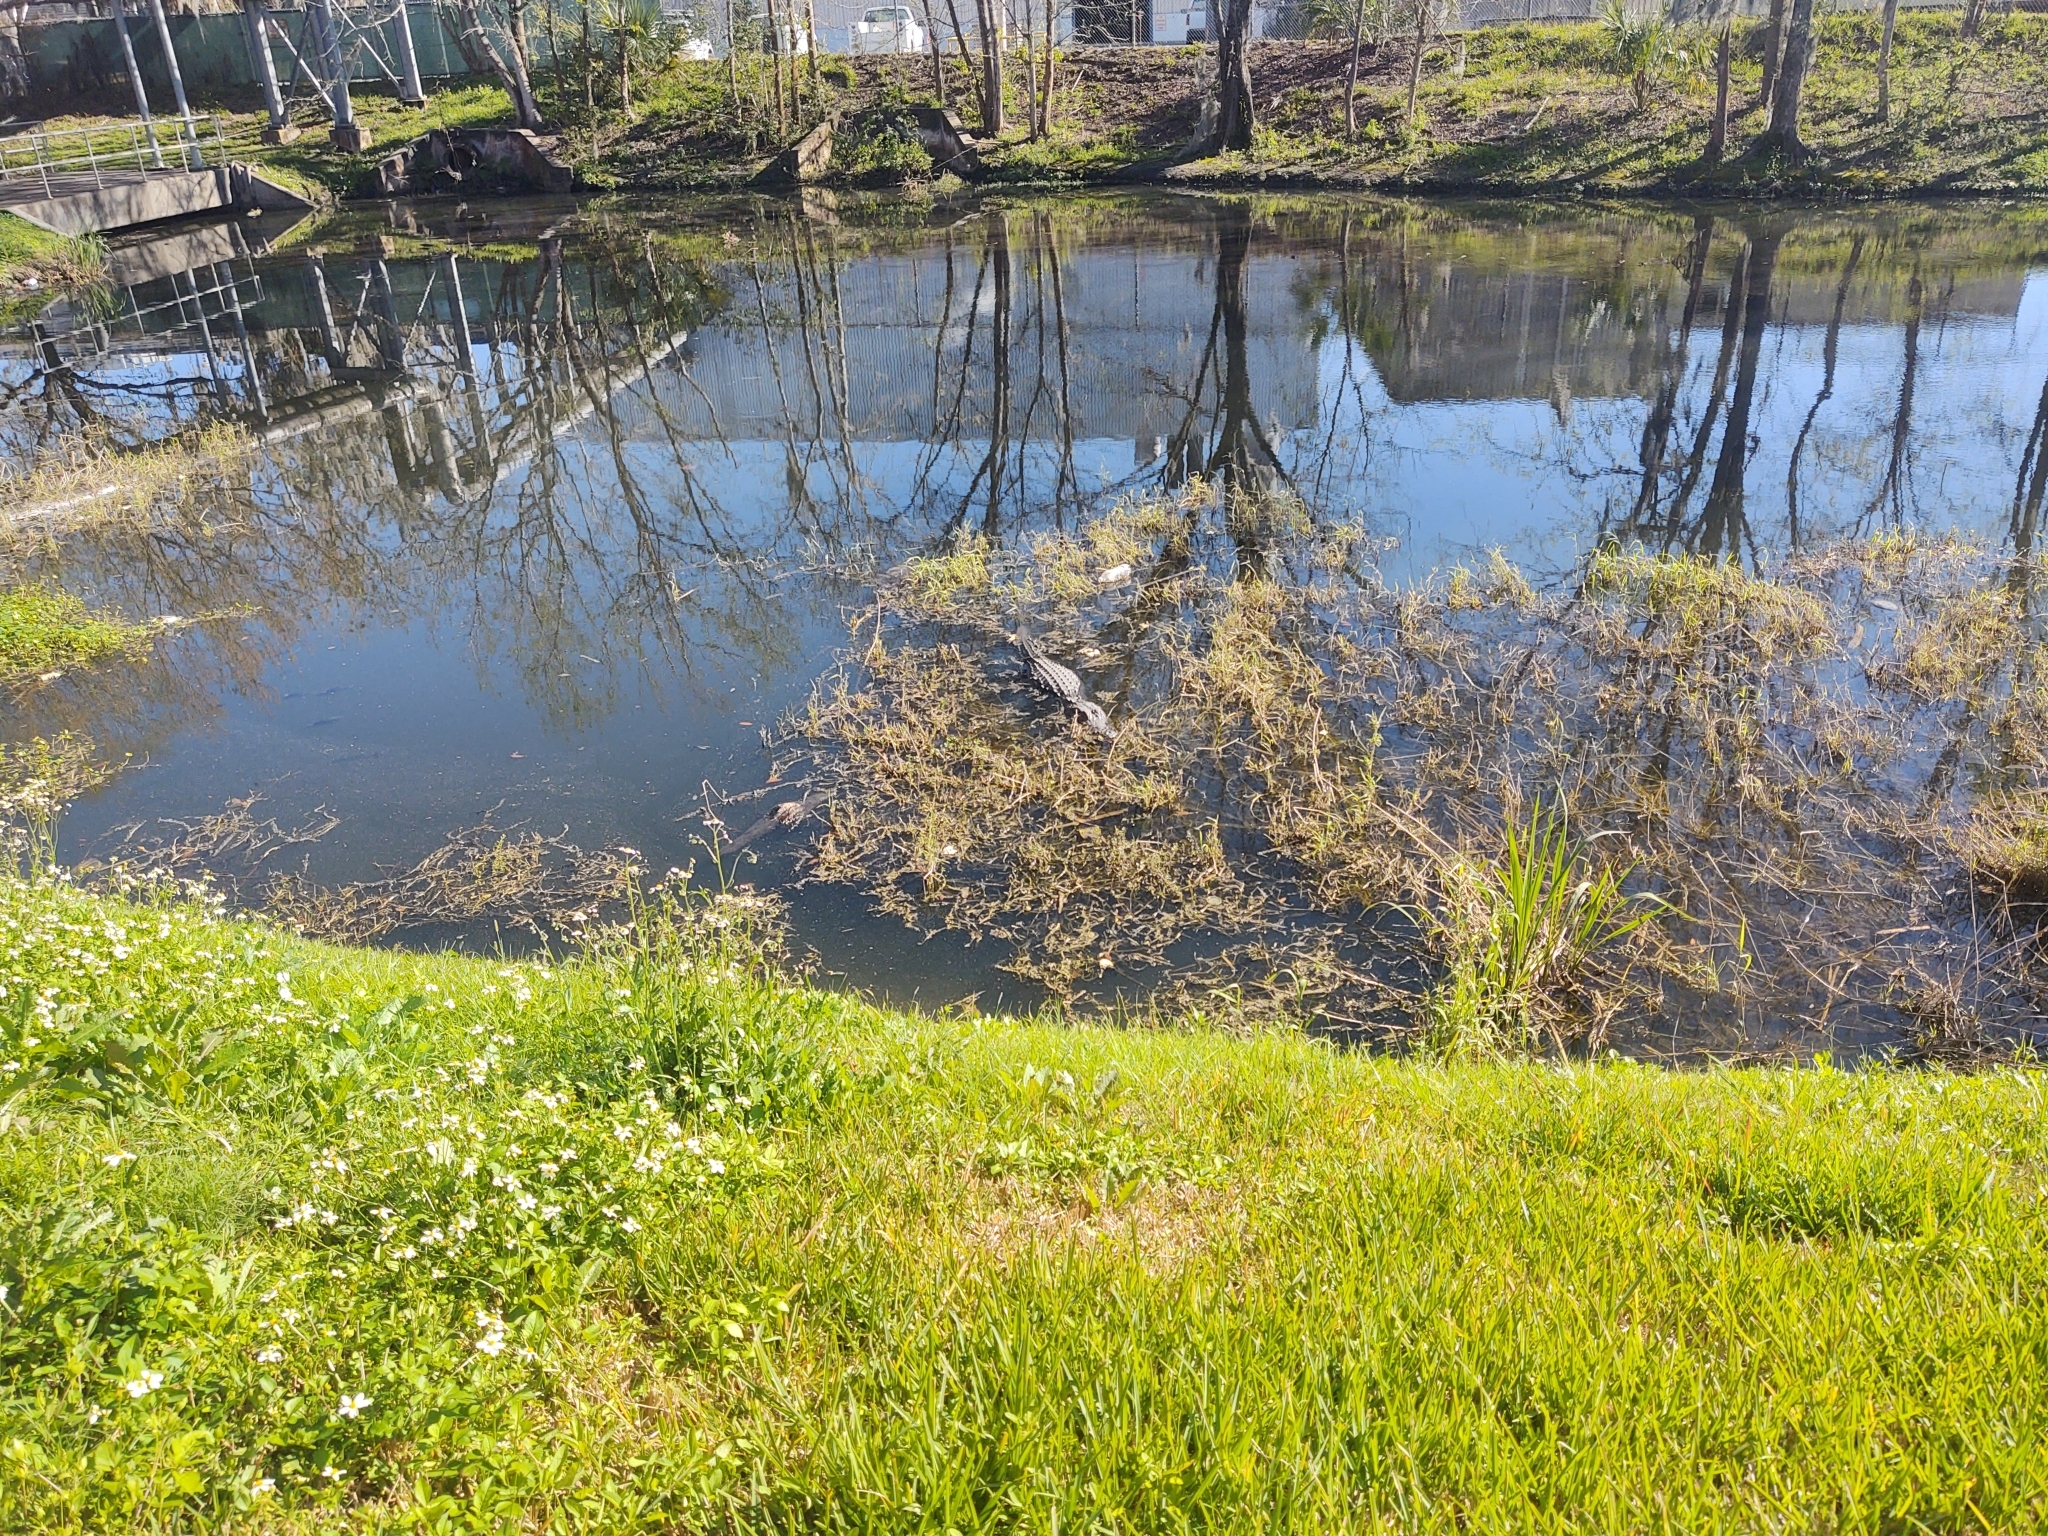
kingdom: Animalia
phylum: Chordata
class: Crocodylia
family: Alligatoridae
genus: Alligator
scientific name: Alligator mississippiensis
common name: American alligator
